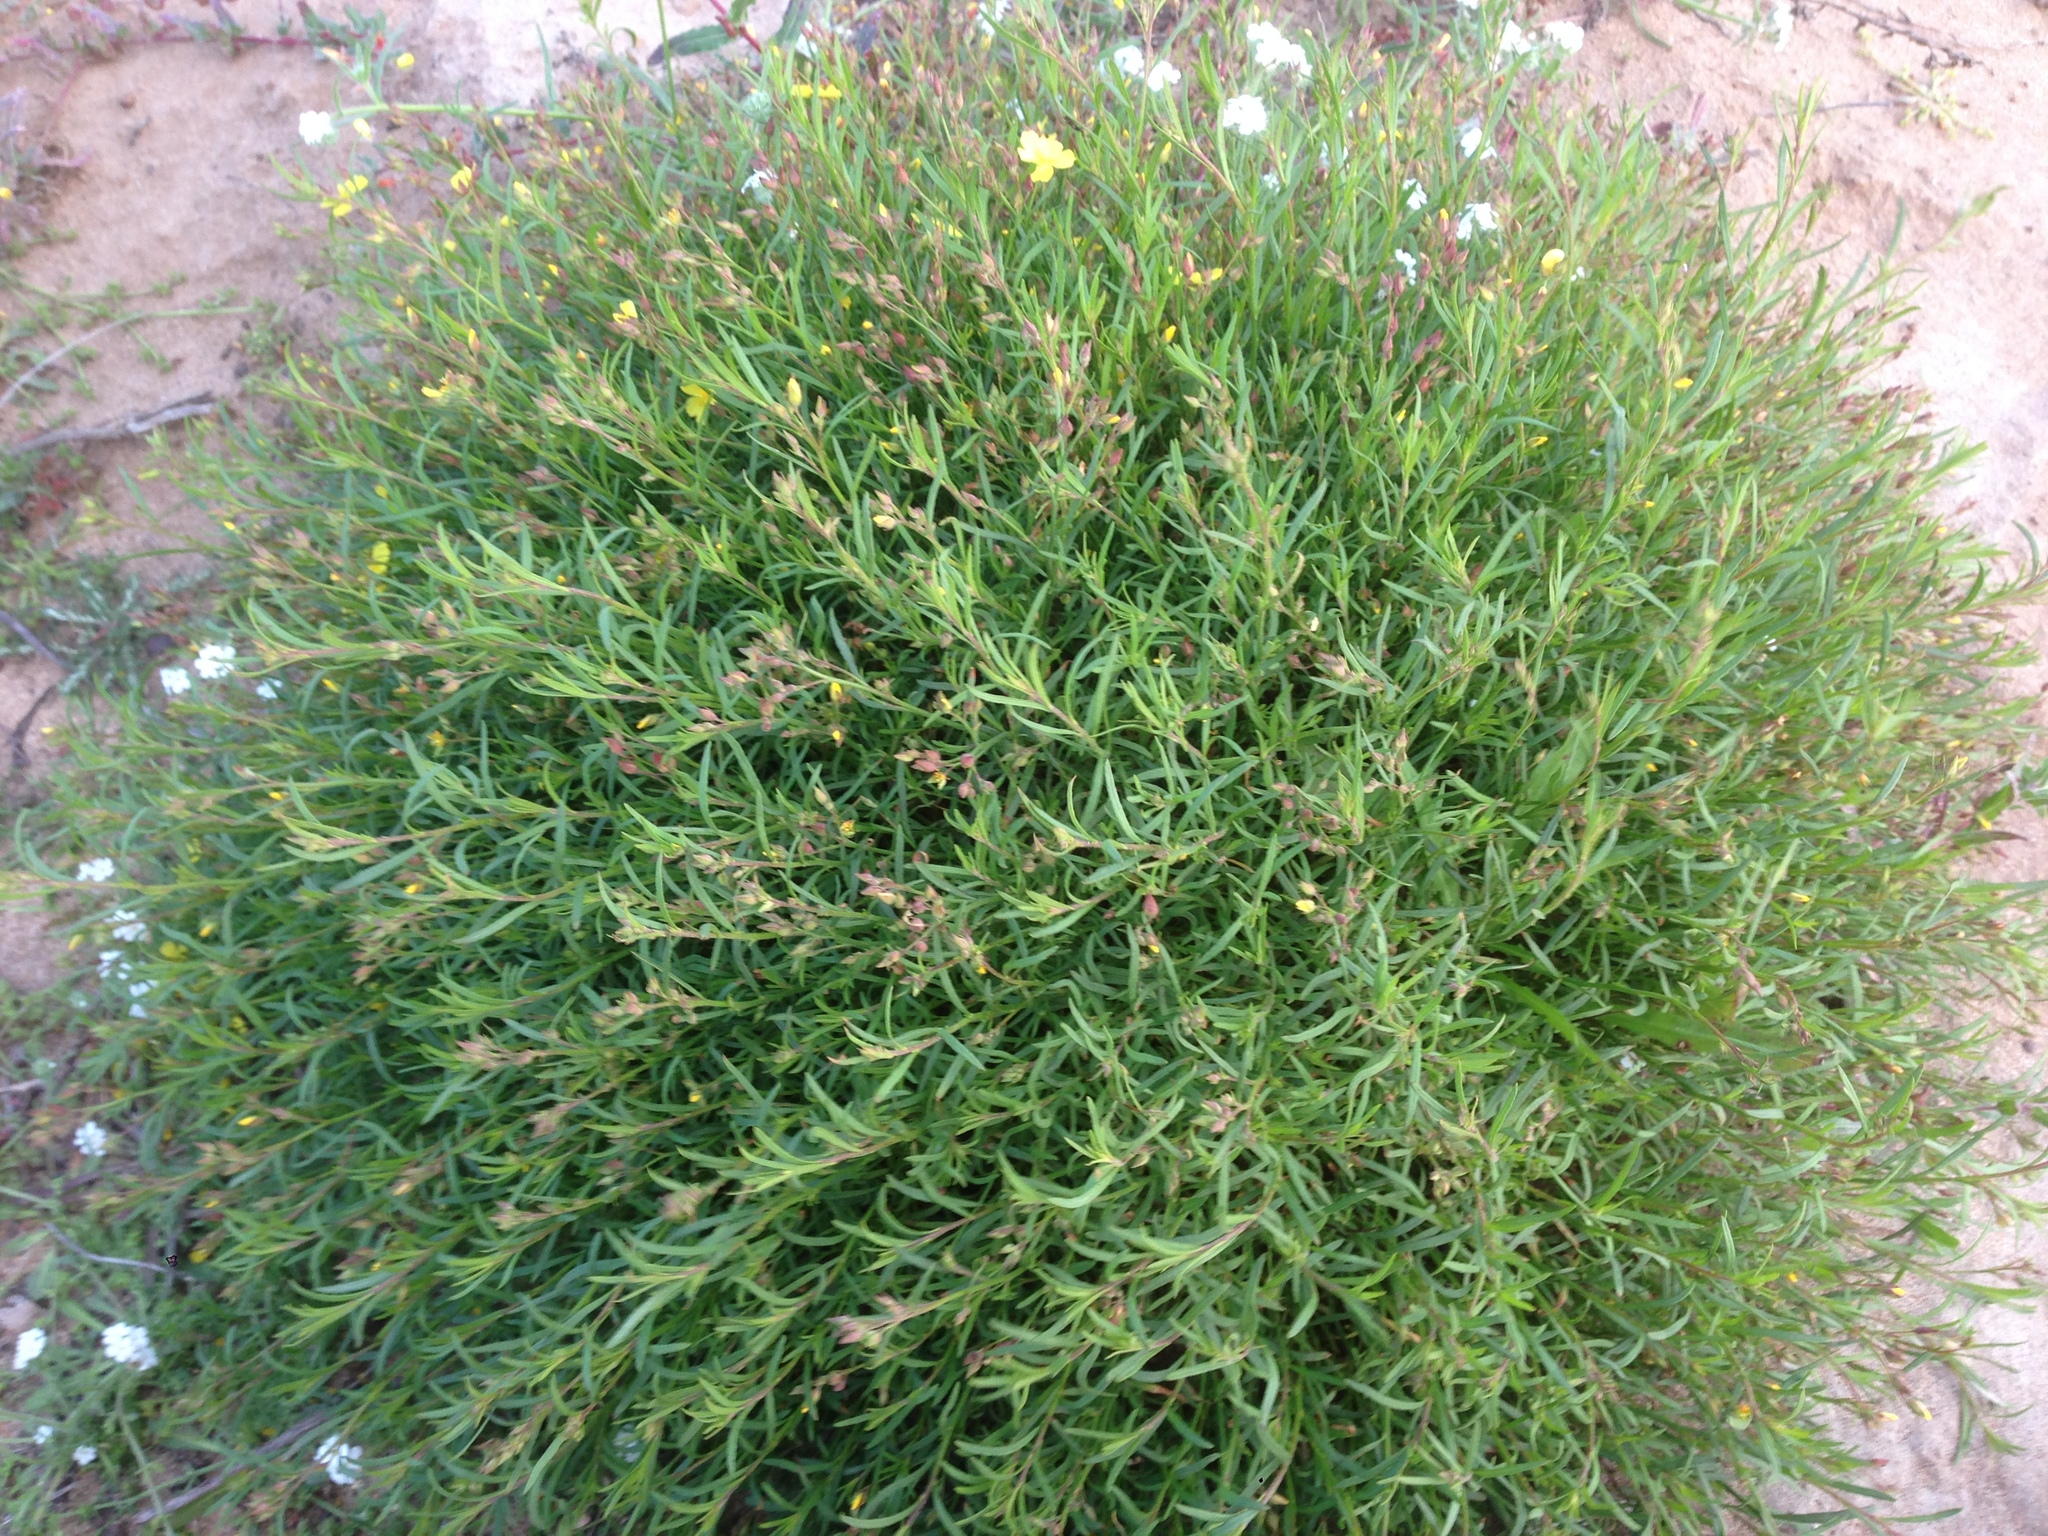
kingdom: Plantae
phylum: Tracheophyta
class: Magnoliopsida
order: Malvales
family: Cistaceae
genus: Crocanthemum
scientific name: Crocanthemum scoparium
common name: Broom-rose
